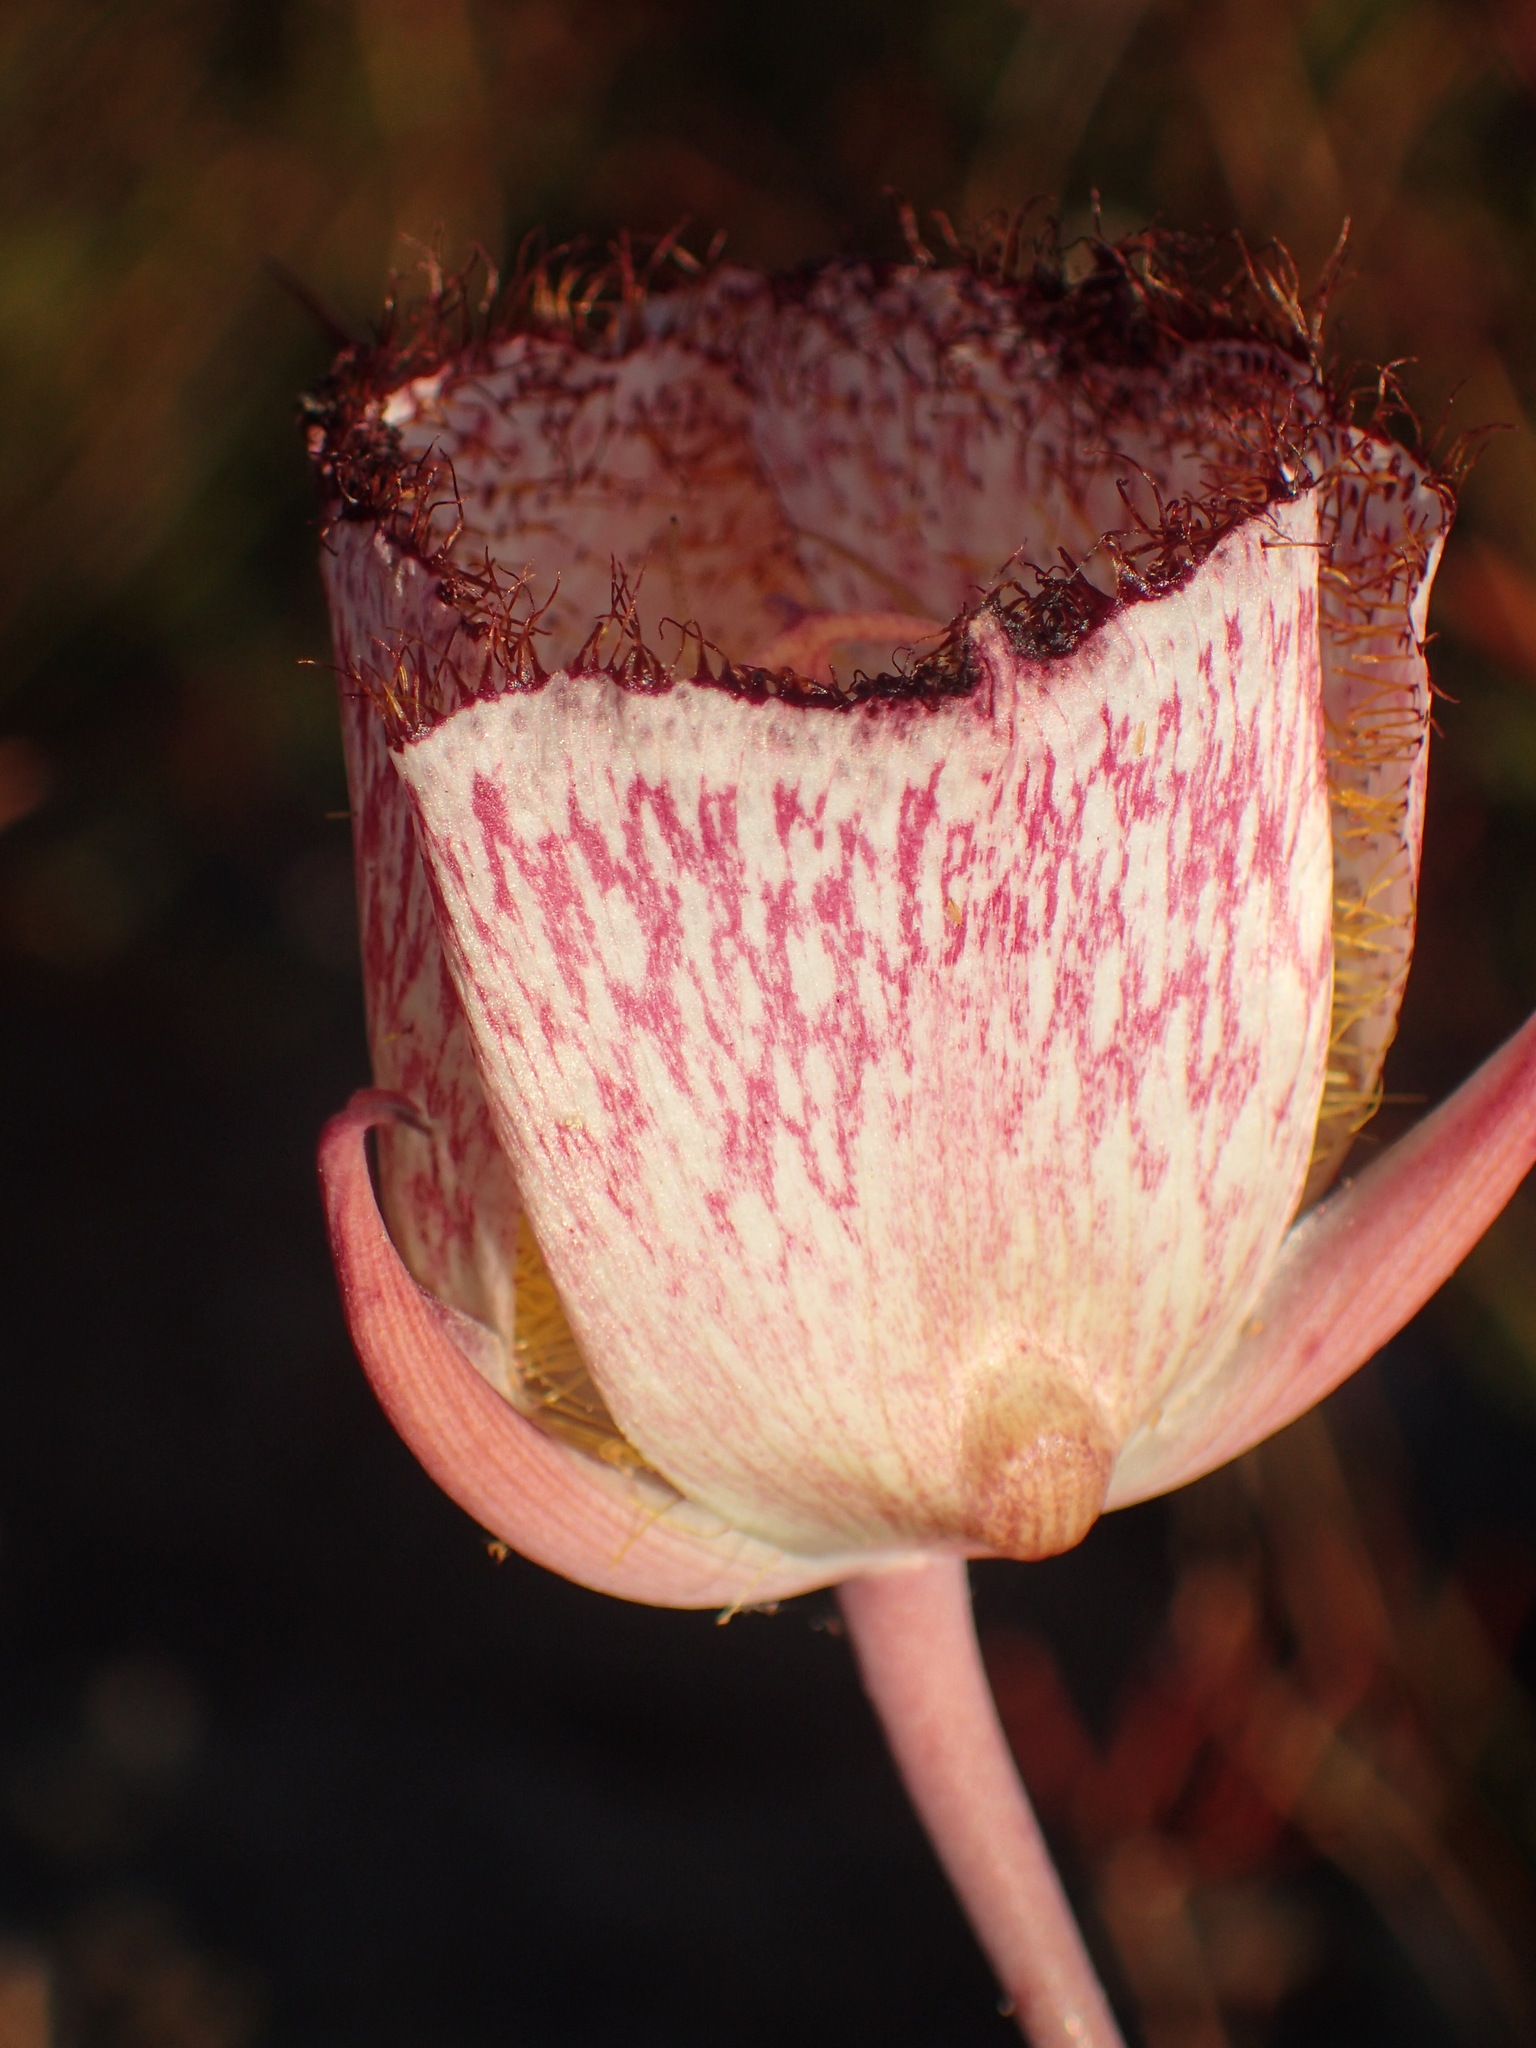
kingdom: Plantae
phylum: Tracheophyta
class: Liliopsida
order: Liliales
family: Liliaceae
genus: Calochortus
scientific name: Calochortus fimbriatus
